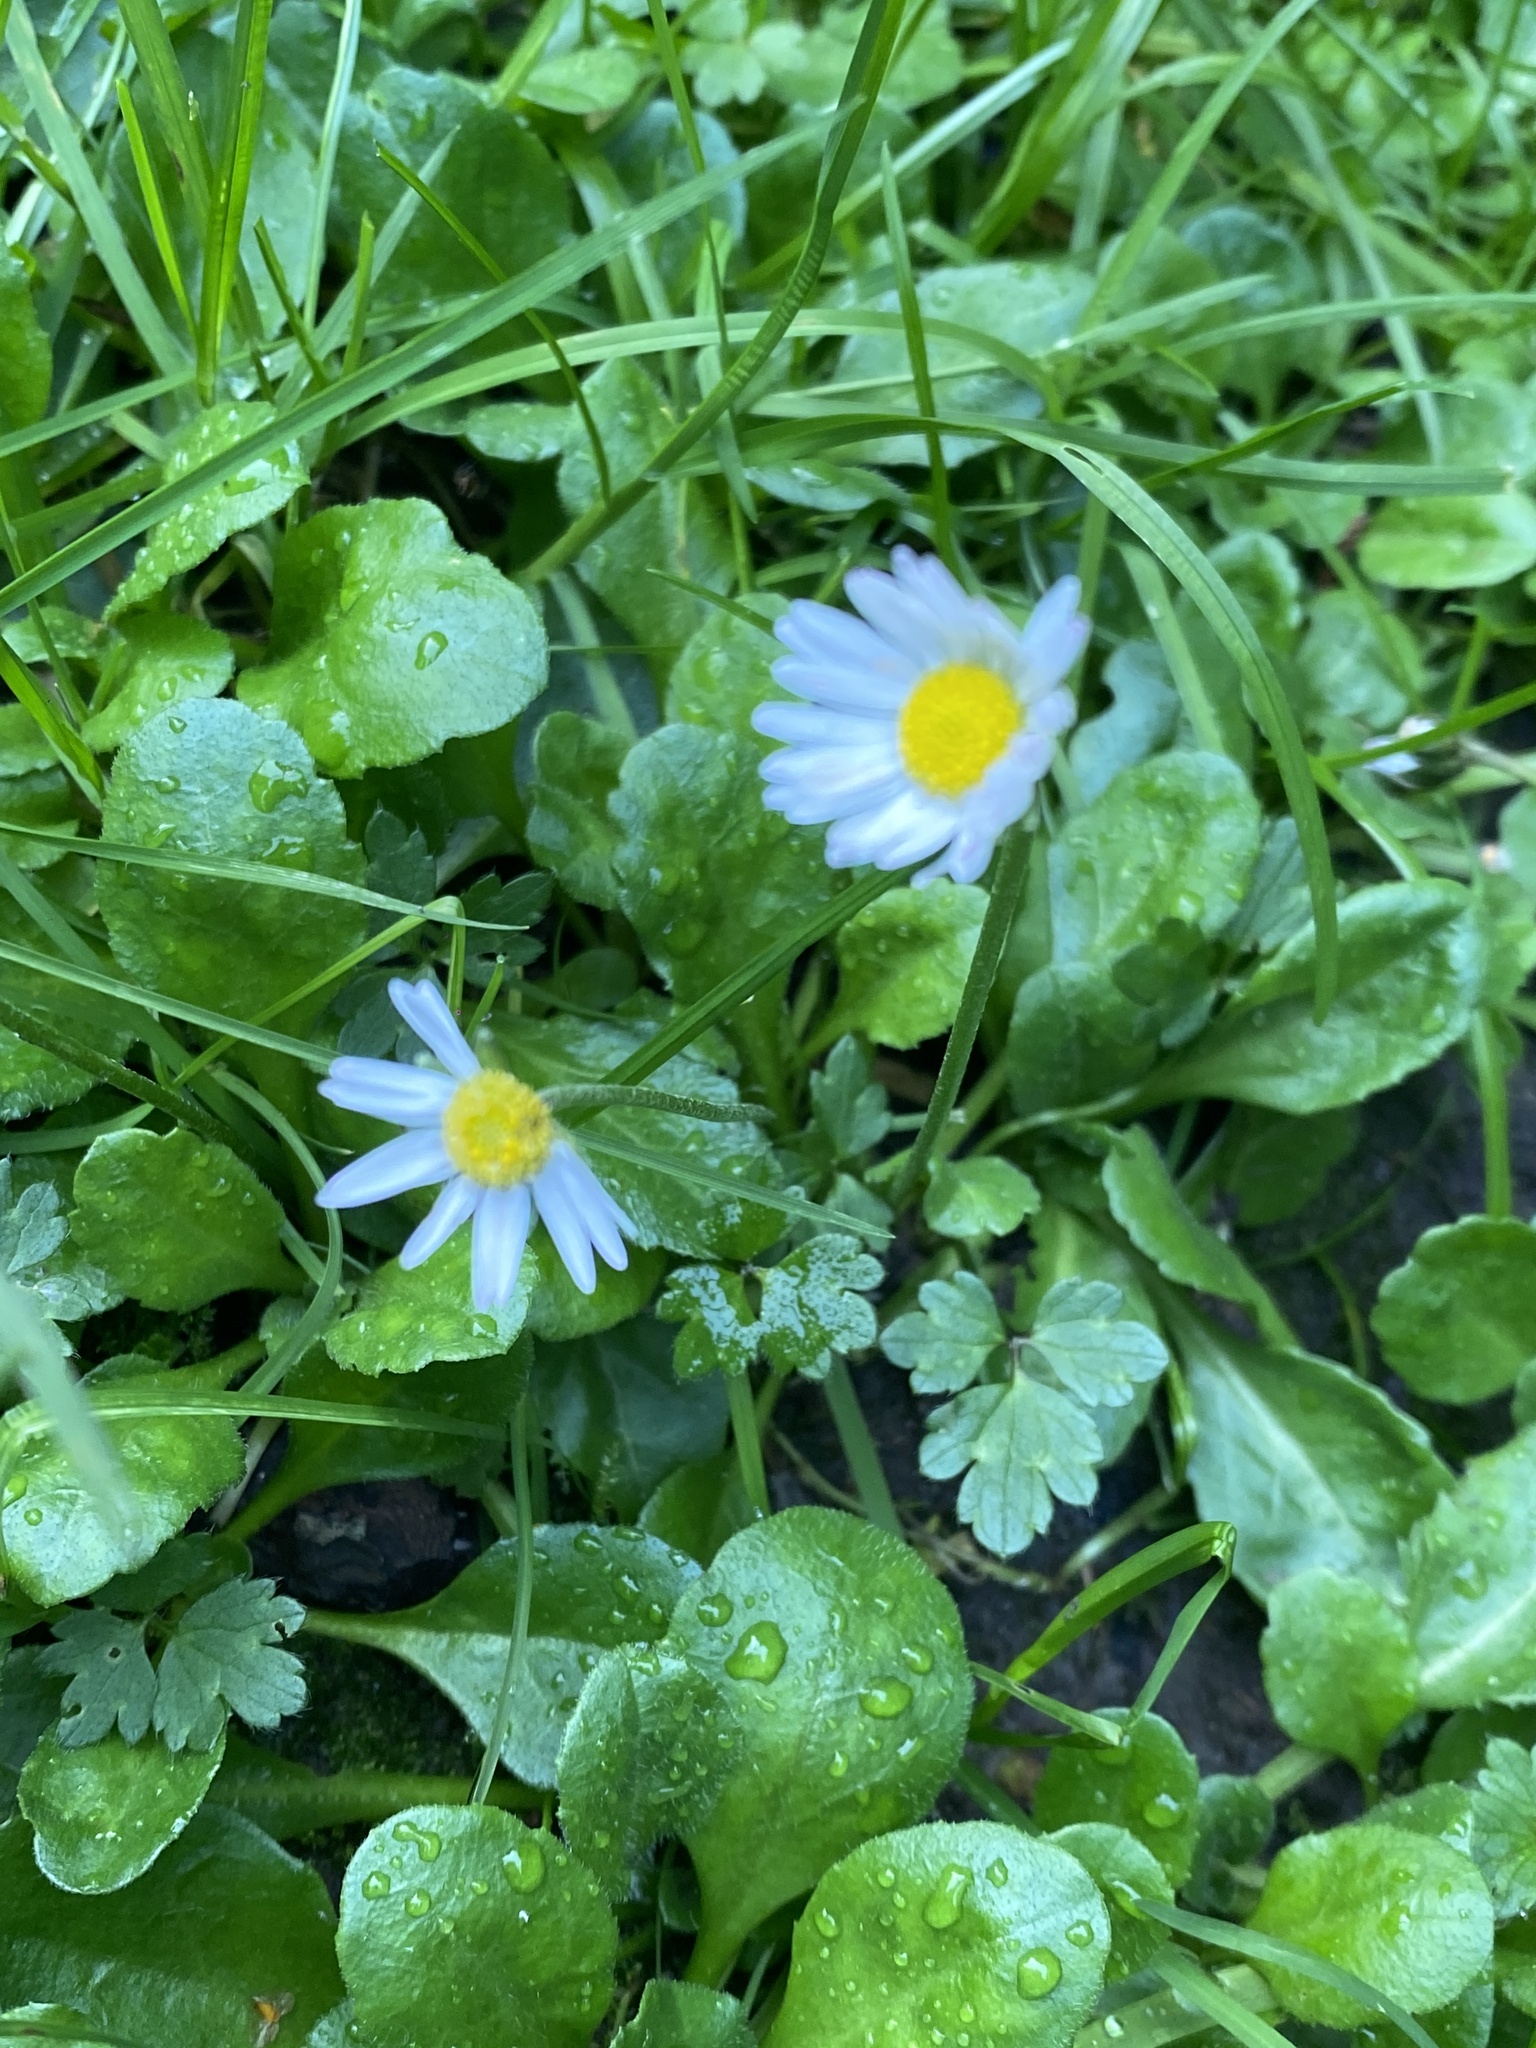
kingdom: Plantae
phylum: Tracheophyta
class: Magnoliopsida
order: Asterales
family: Asteraceae
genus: Bellis
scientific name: Bellis perennis
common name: Lawndaisy
